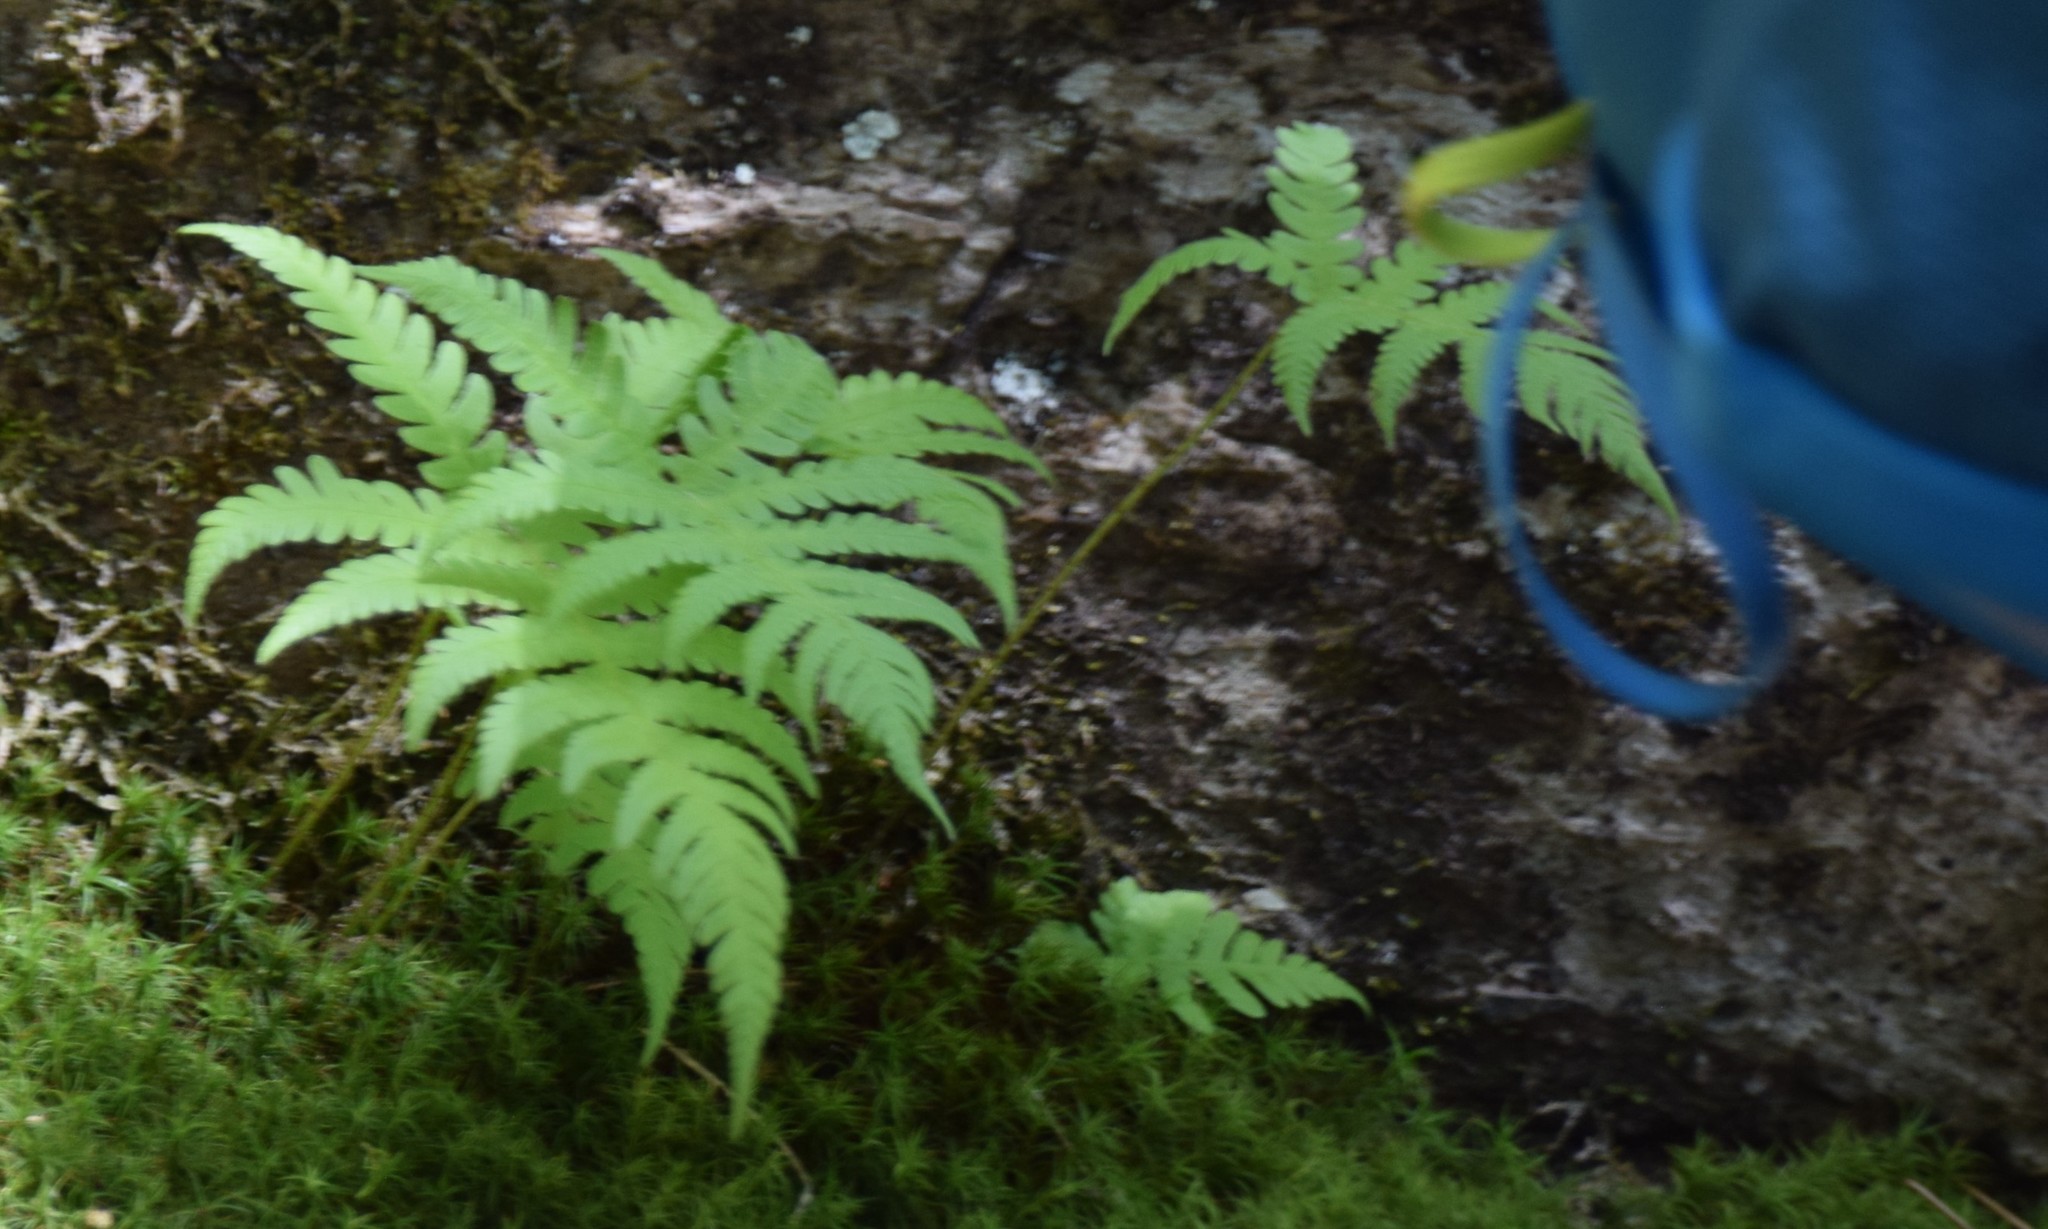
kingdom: Plantae
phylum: Tracheophyta
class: Polypodiopsida
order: Polypodiales
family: Thelypteridaceae
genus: Phegopteris
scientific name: Phegopteris connectilis
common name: Beech fern
